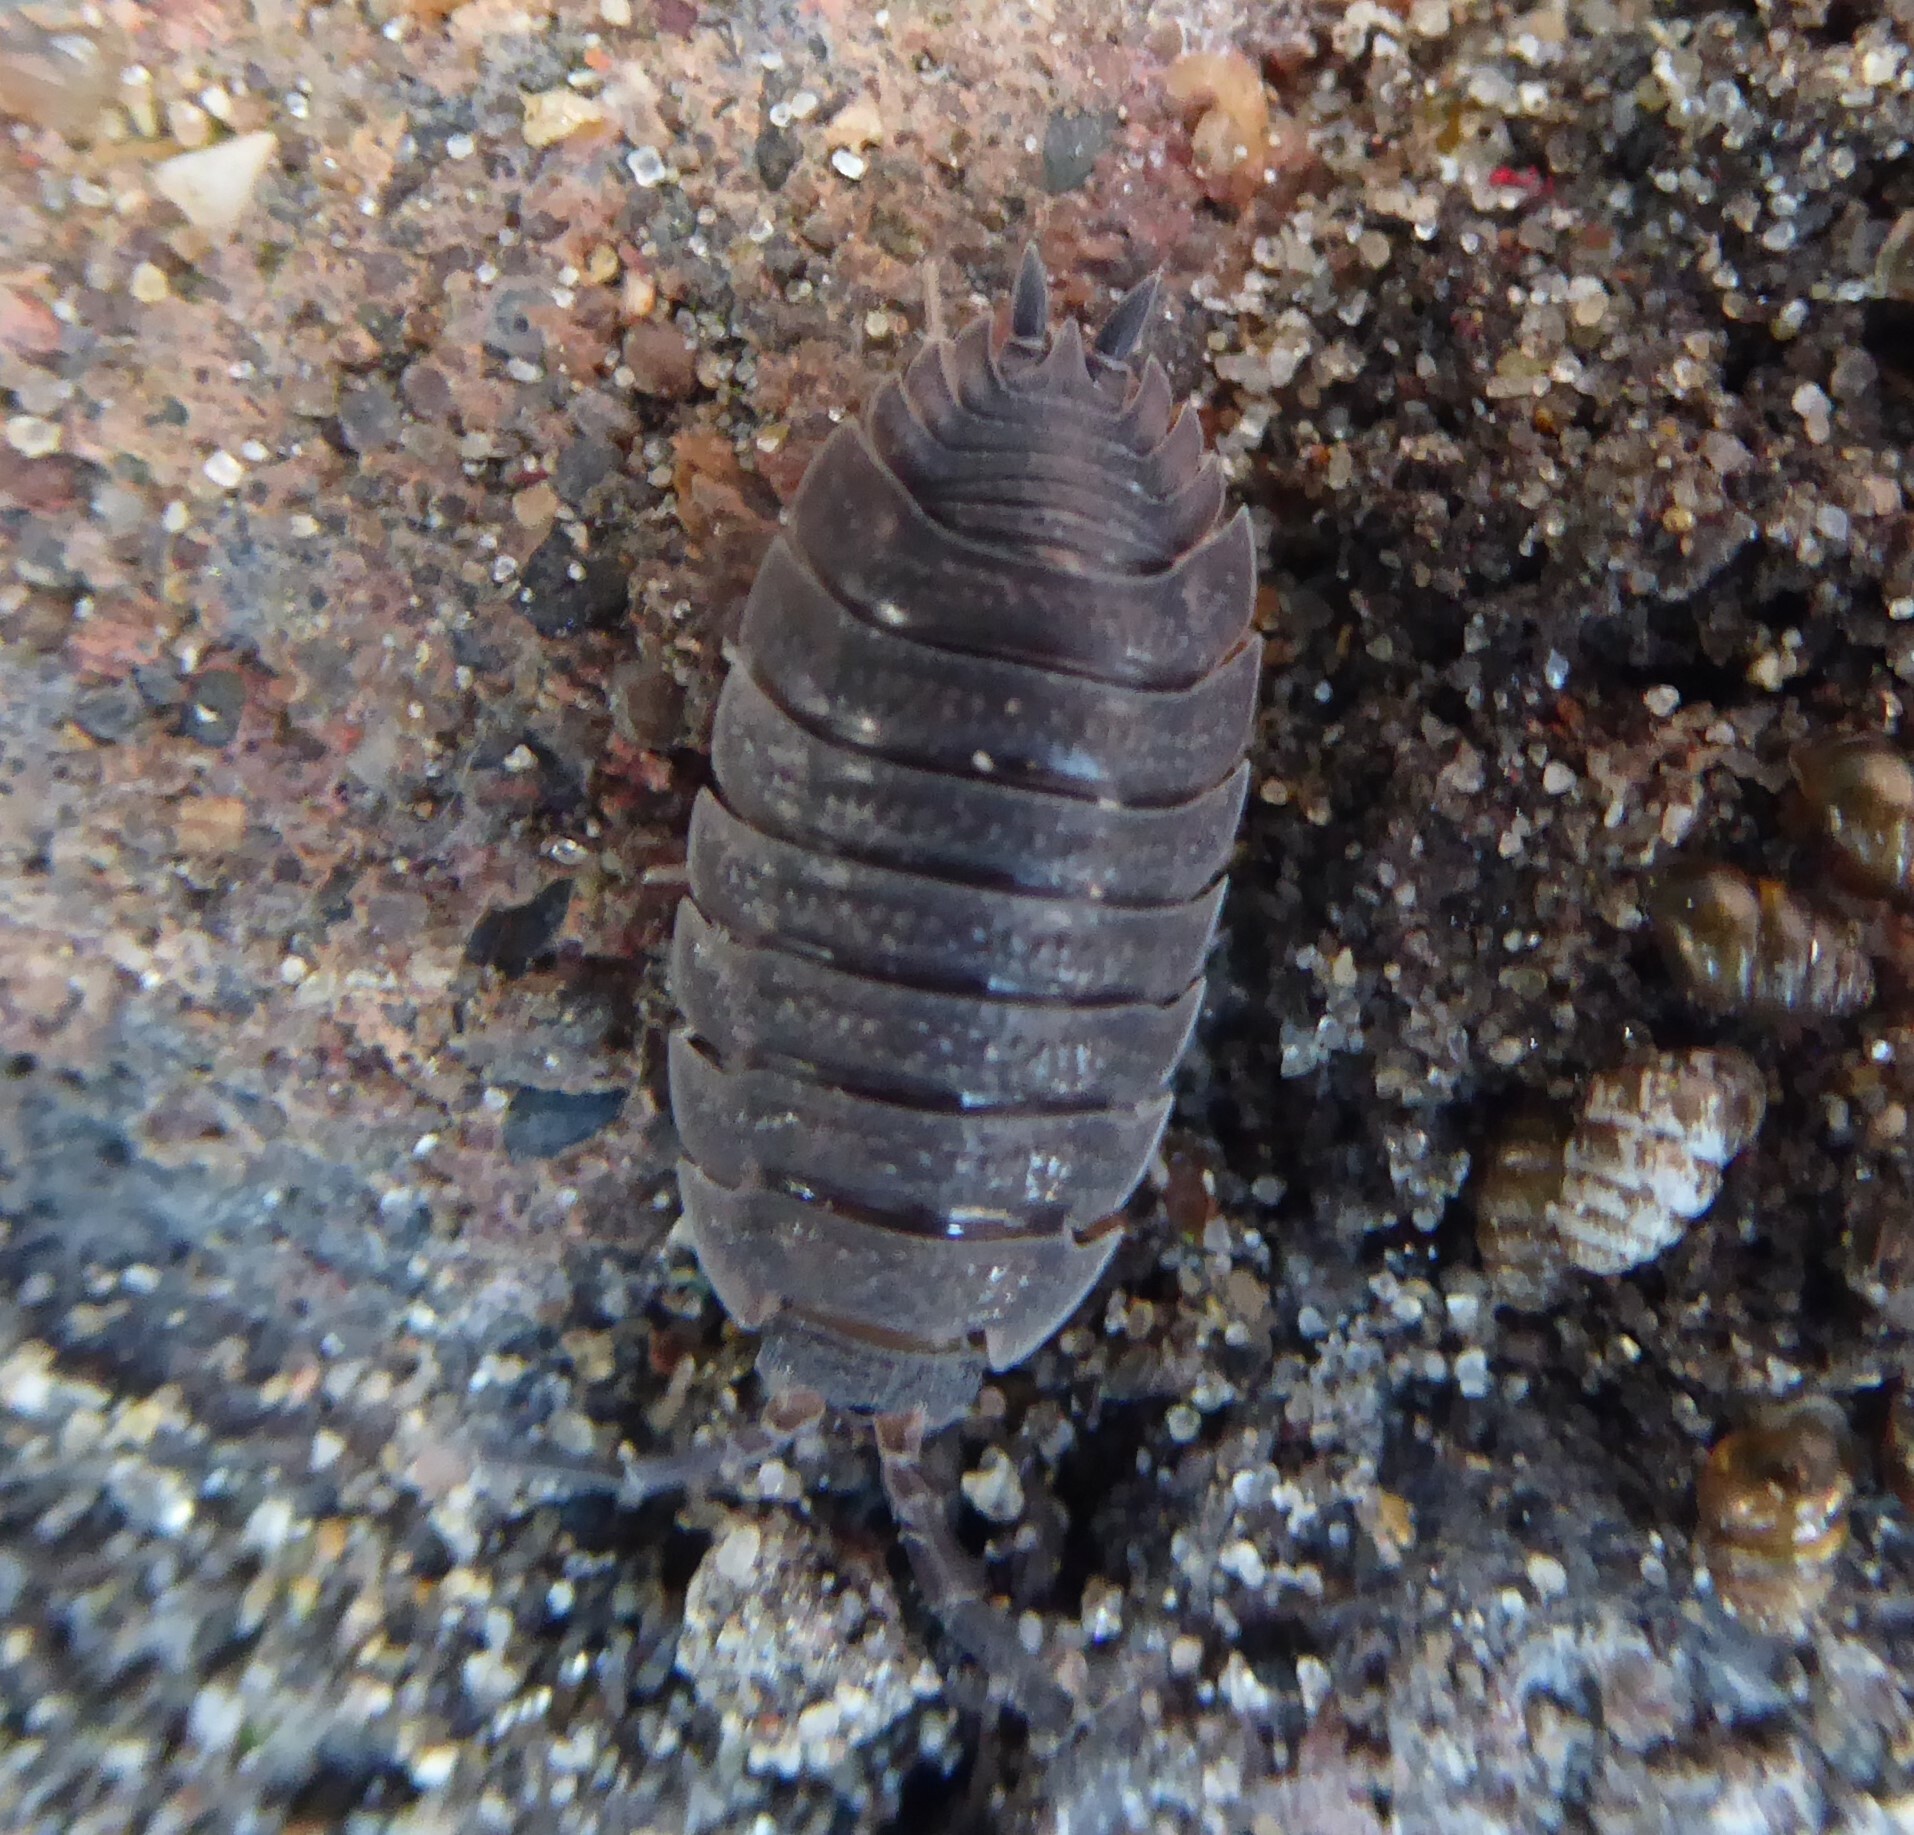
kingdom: Animalia
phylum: Arthropoda
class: Malacostraca
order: Isopoda
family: Porcellionidae
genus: Porcellio
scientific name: Porcellio scaber
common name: Common rough woodlouse
